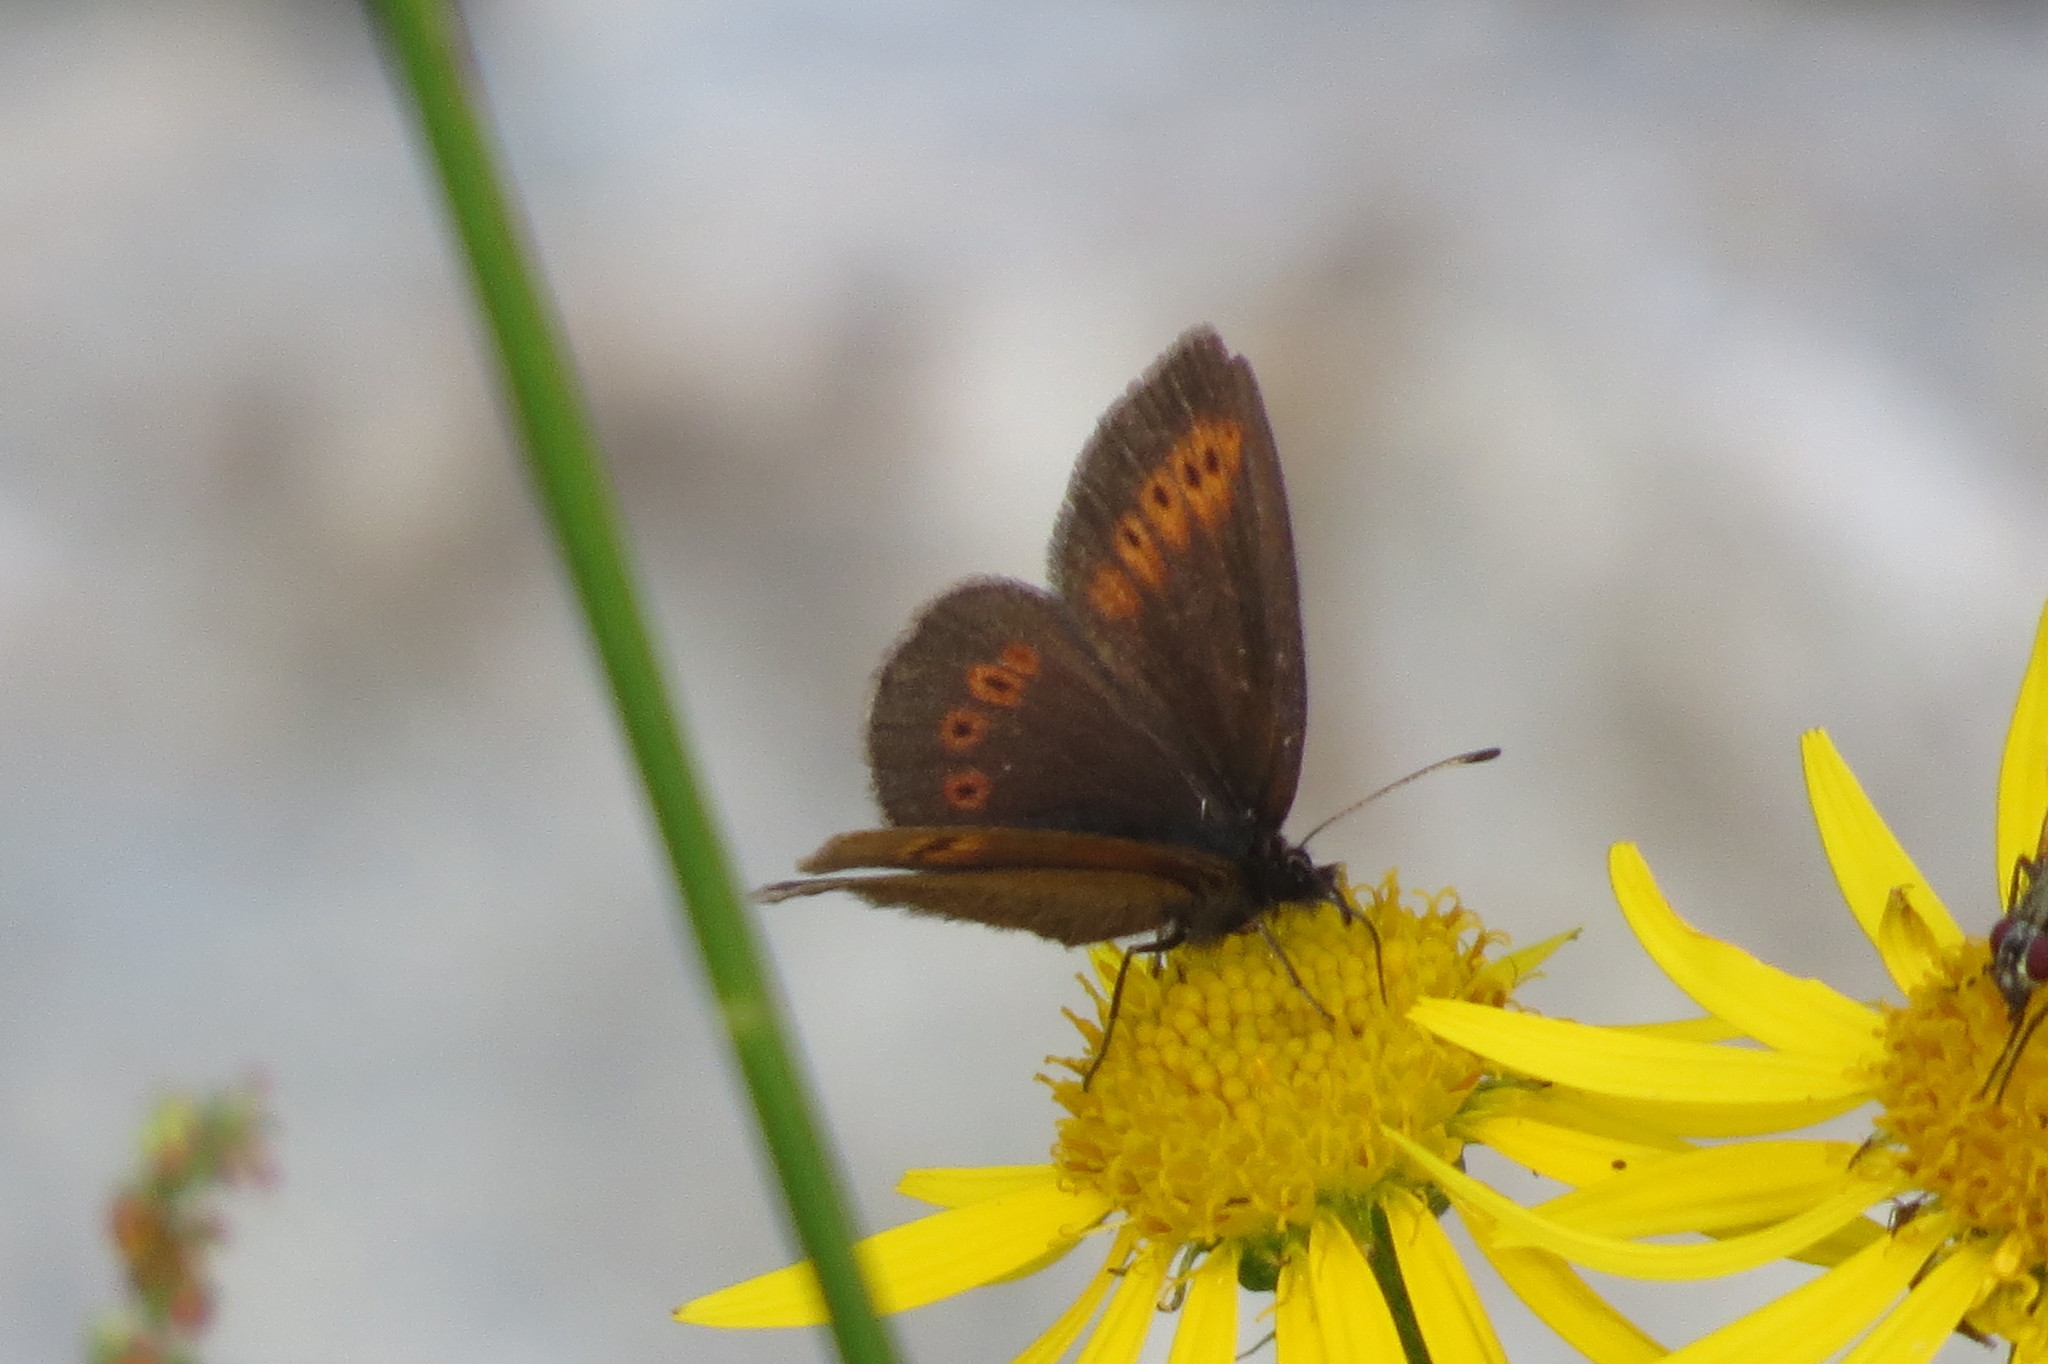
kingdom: Animalia
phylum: Arthropoda
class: Insecta
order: Lepidoptera
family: Nymphalidae
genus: Erebia
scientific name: Erebia melampus
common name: Lesser mountain ringlet
